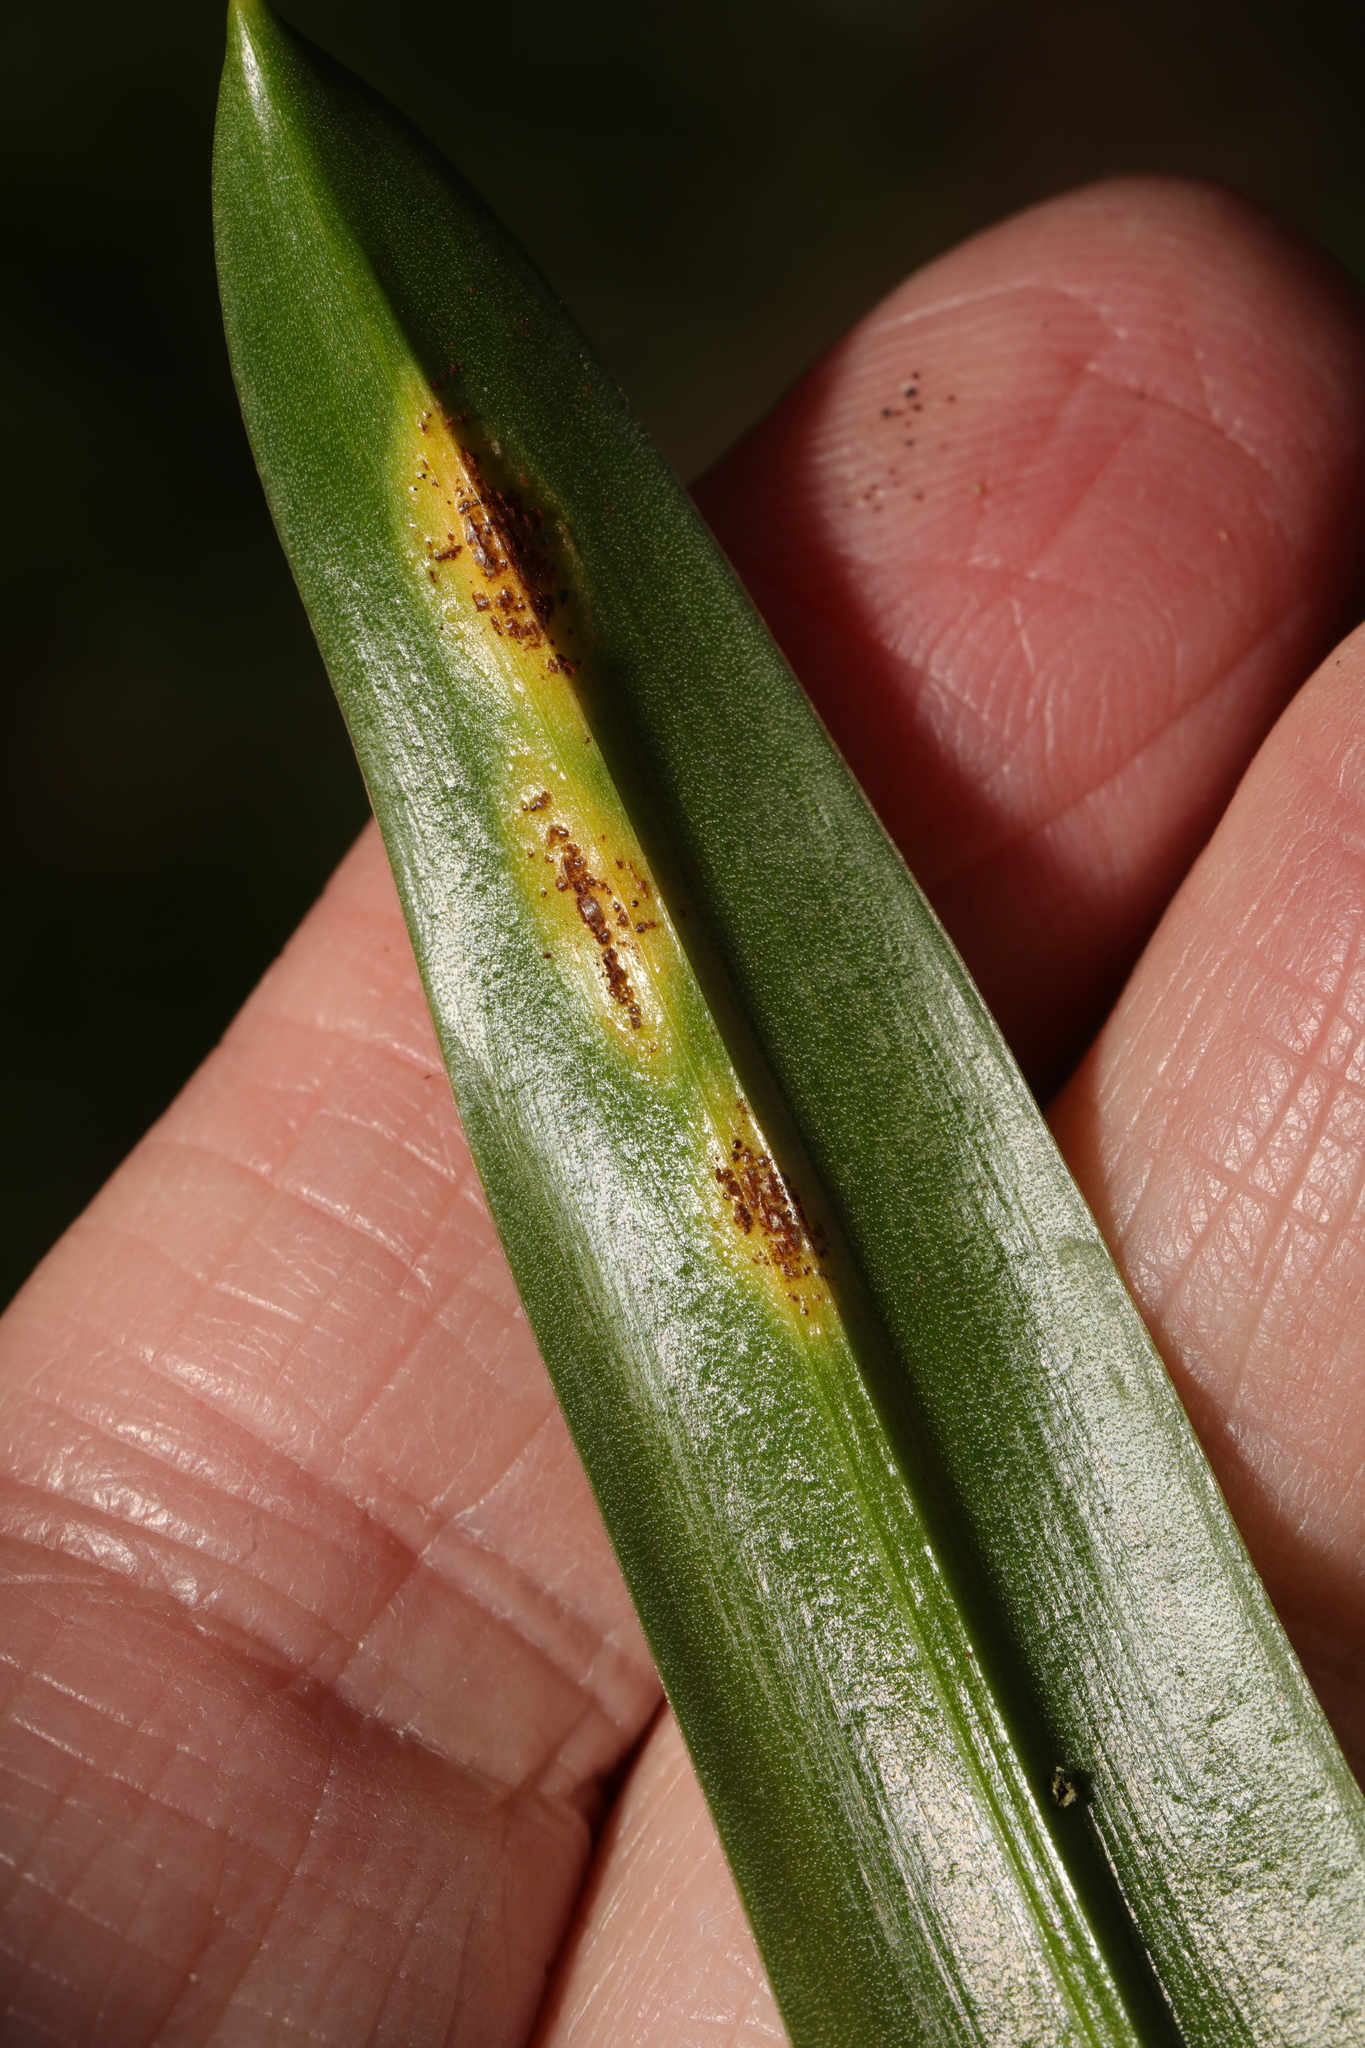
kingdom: Fungi
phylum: Basidiomycota
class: Pucciniomycetes
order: Pucciniales
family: Pucciniaceae
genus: Uromyces
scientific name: Uromyces hyacinthi
